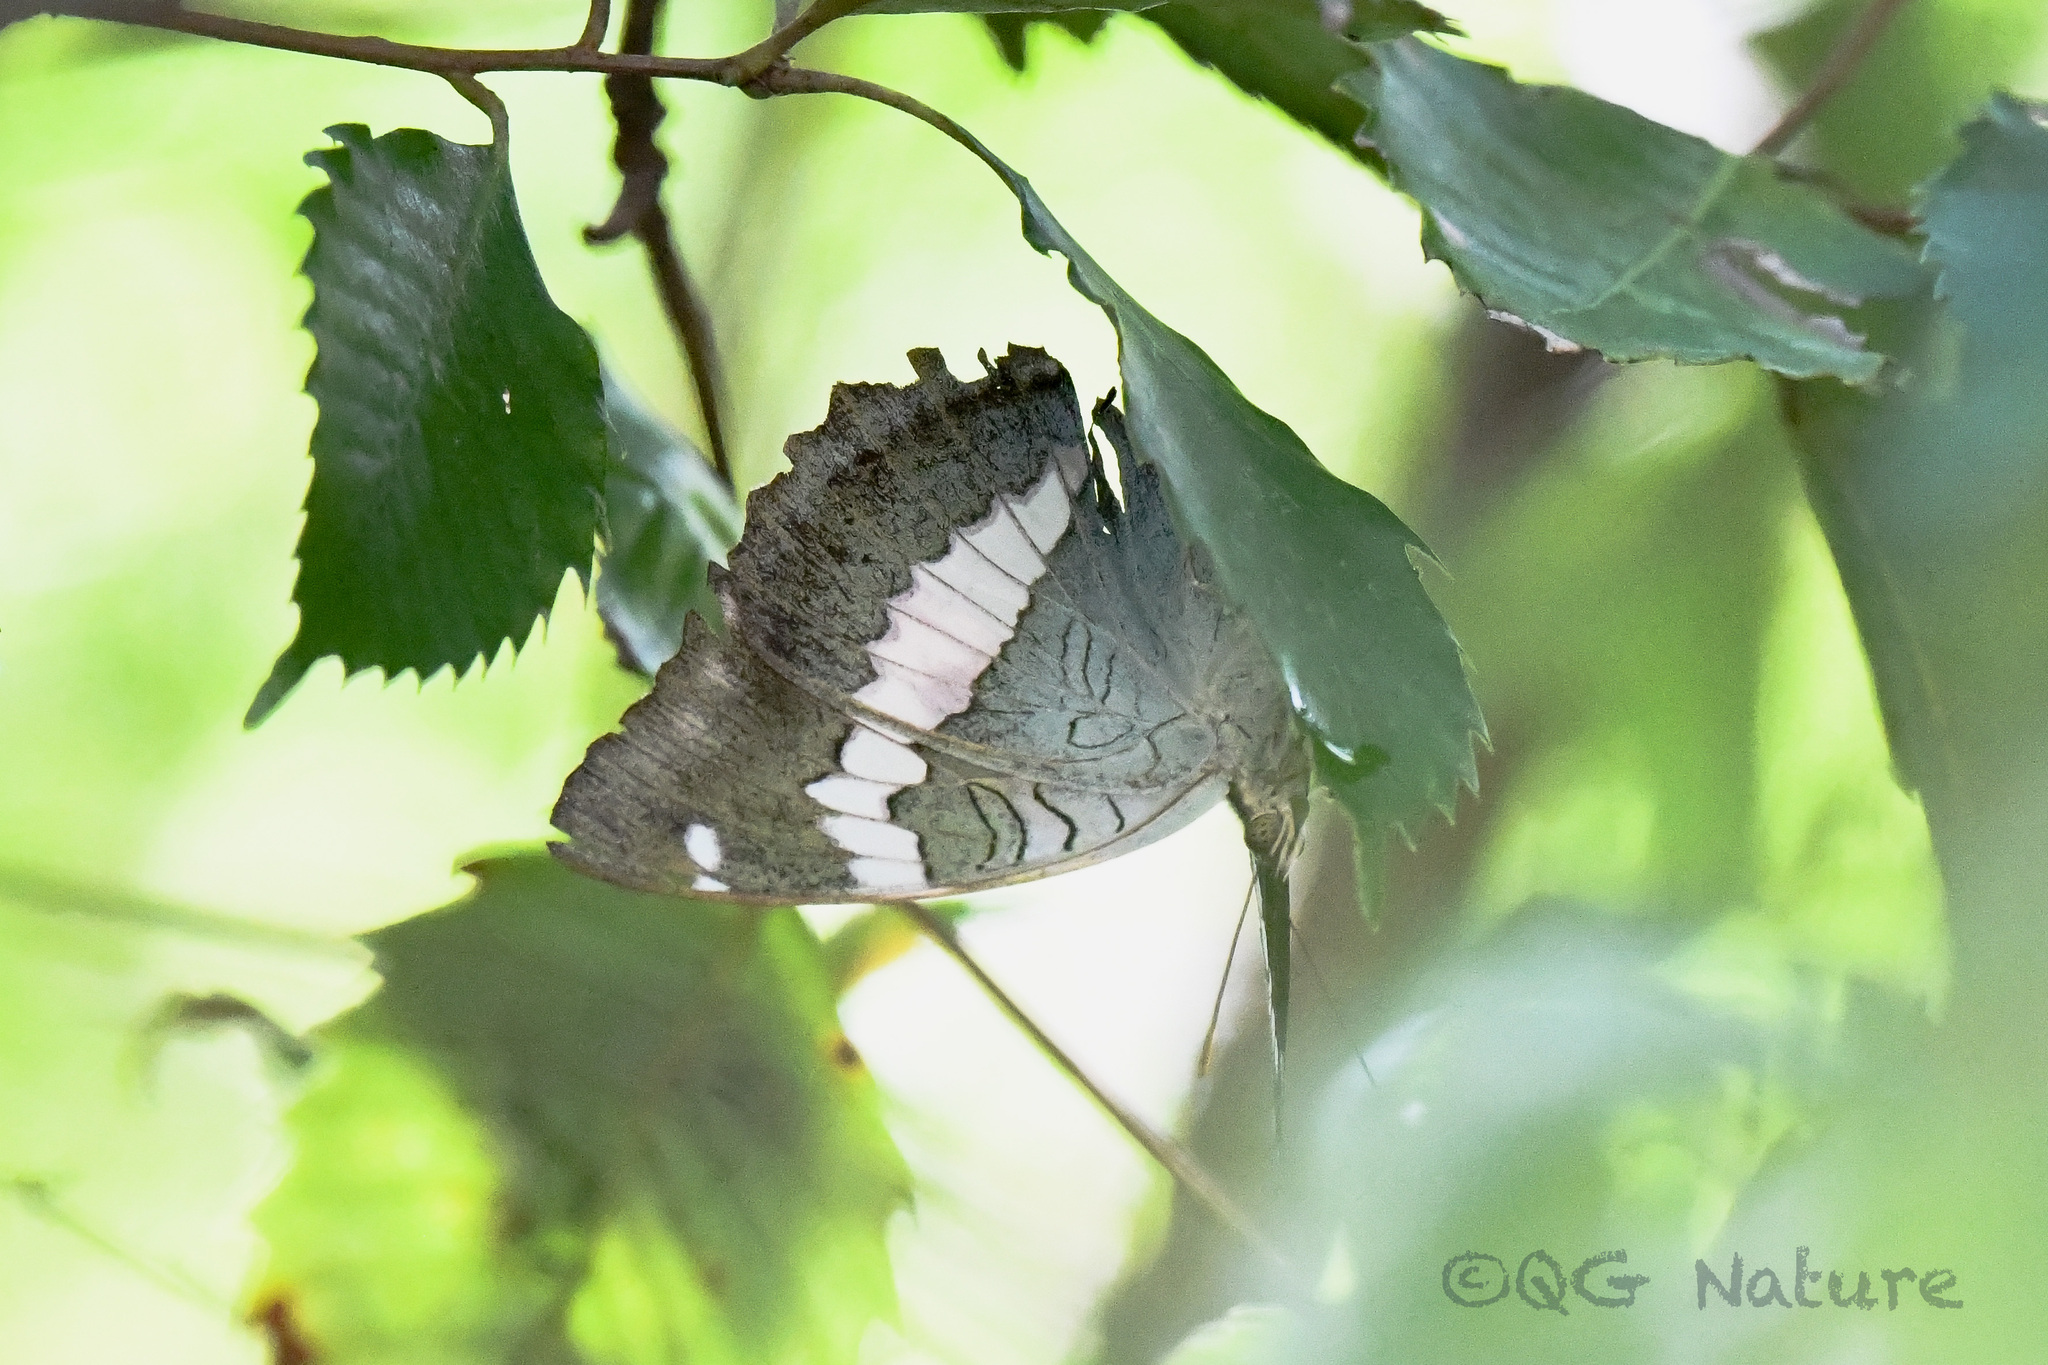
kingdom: Animalia
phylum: Arthropoda
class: Insecta
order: Lepidoptera
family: Nymphalidae
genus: Euthalia
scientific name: Euthalia
